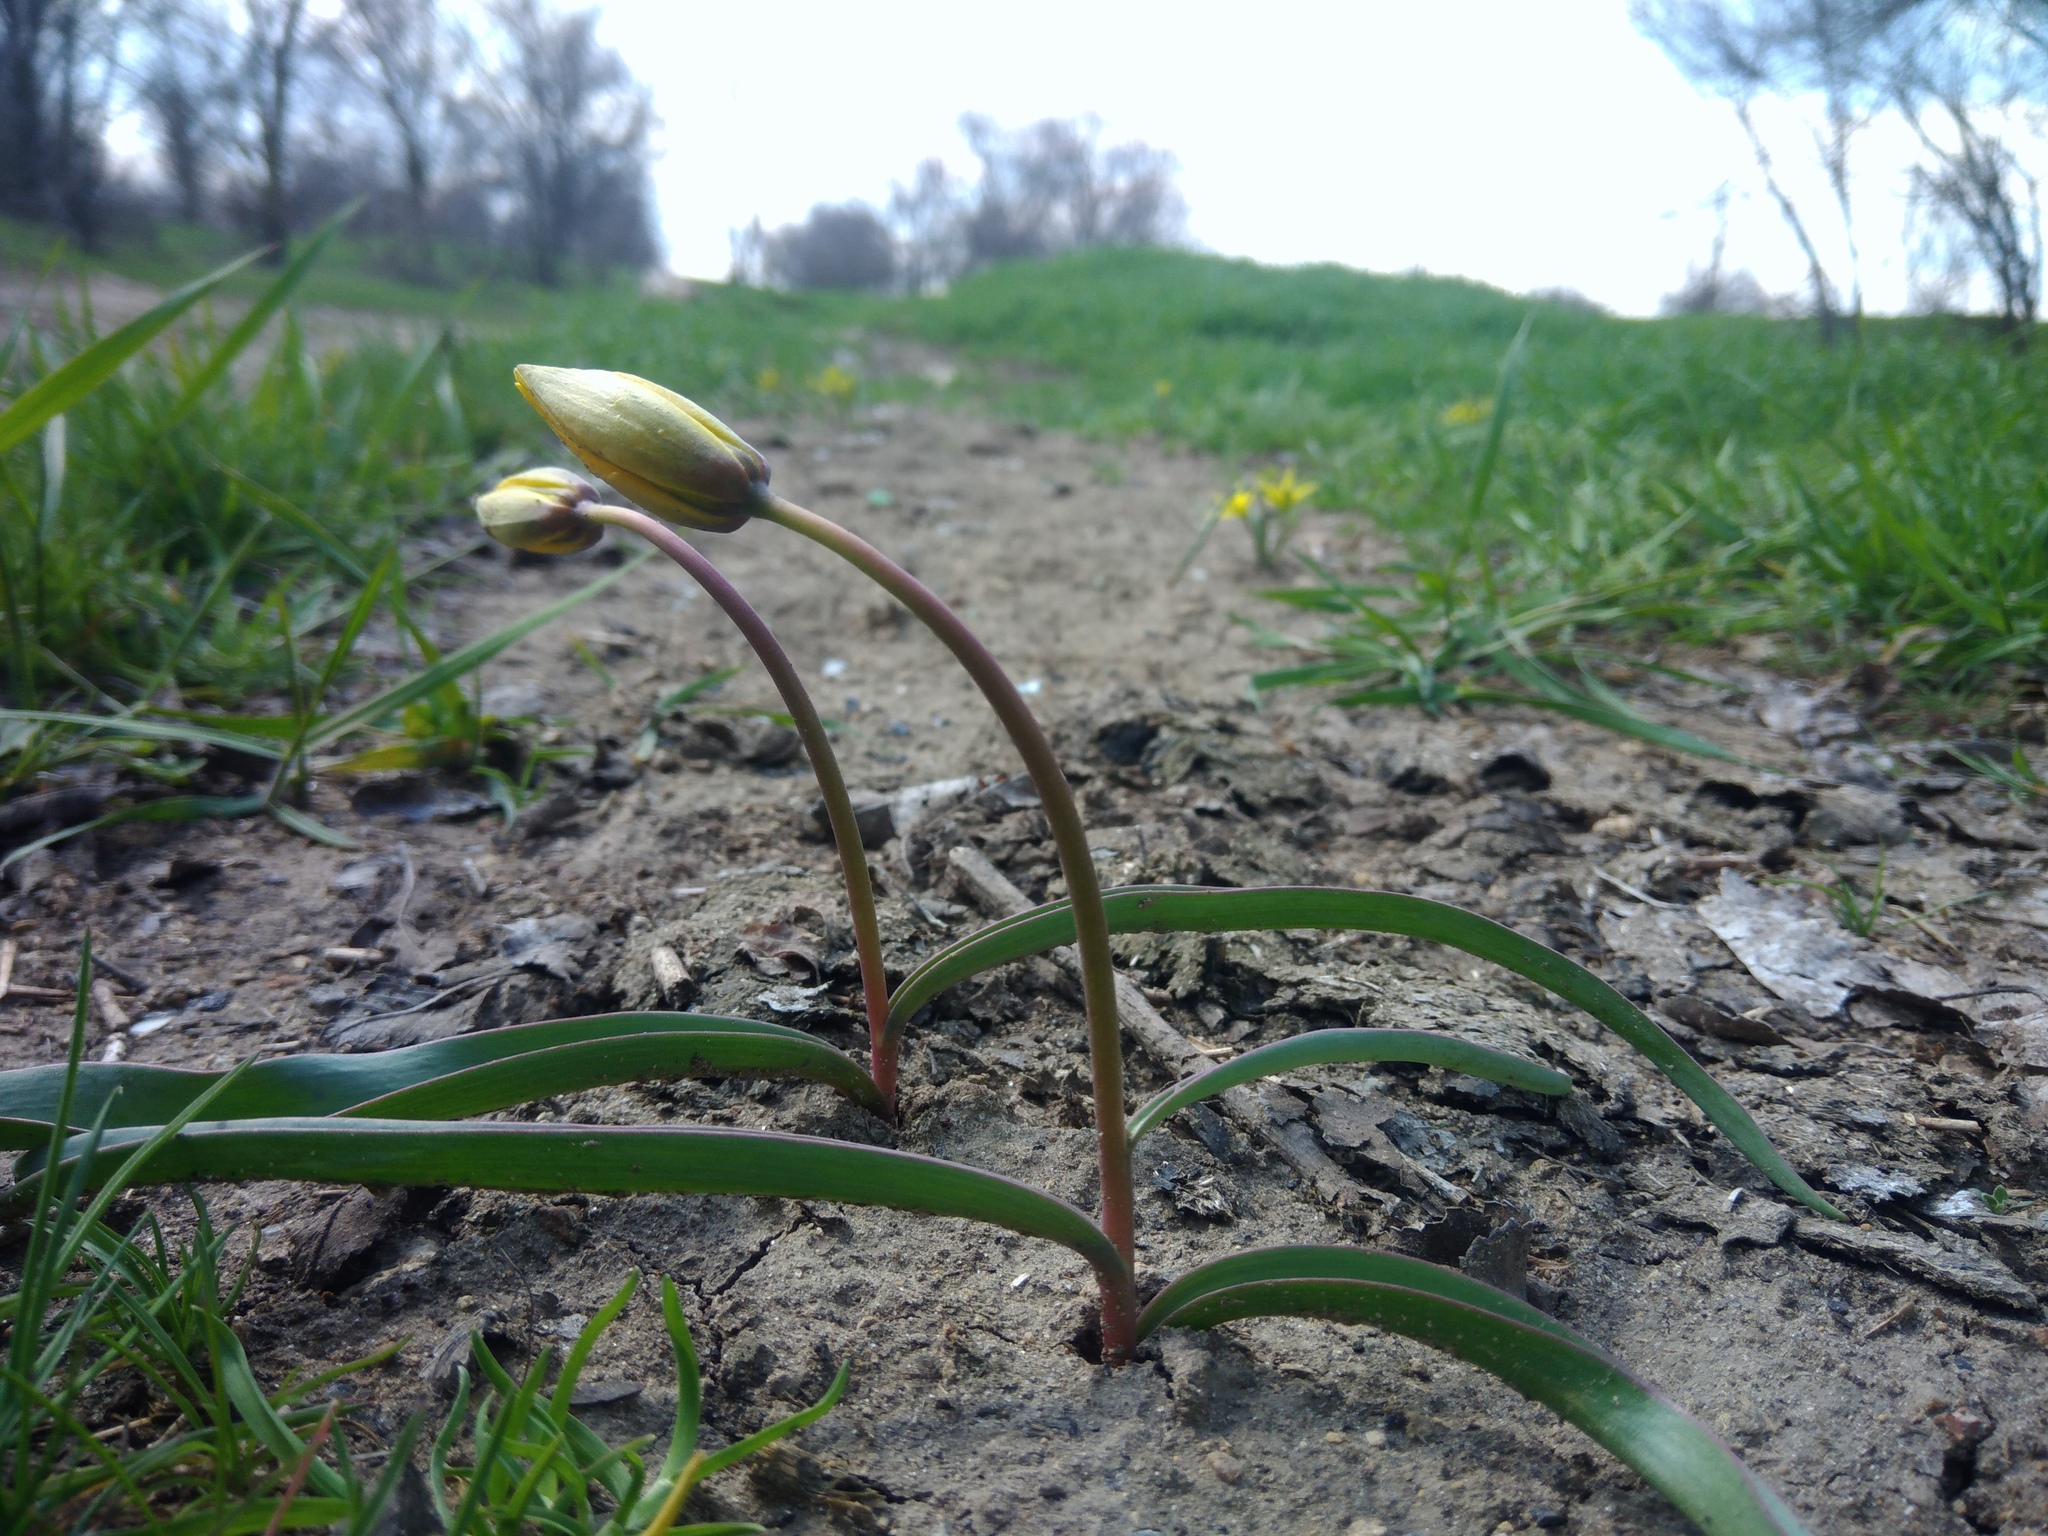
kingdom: Plantae
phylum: Tracheophyta
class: Liliopsida
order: Liliales
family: Liliaceae
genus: Tulipa
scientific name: Tulipa sylvestris
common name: Wild tulip
